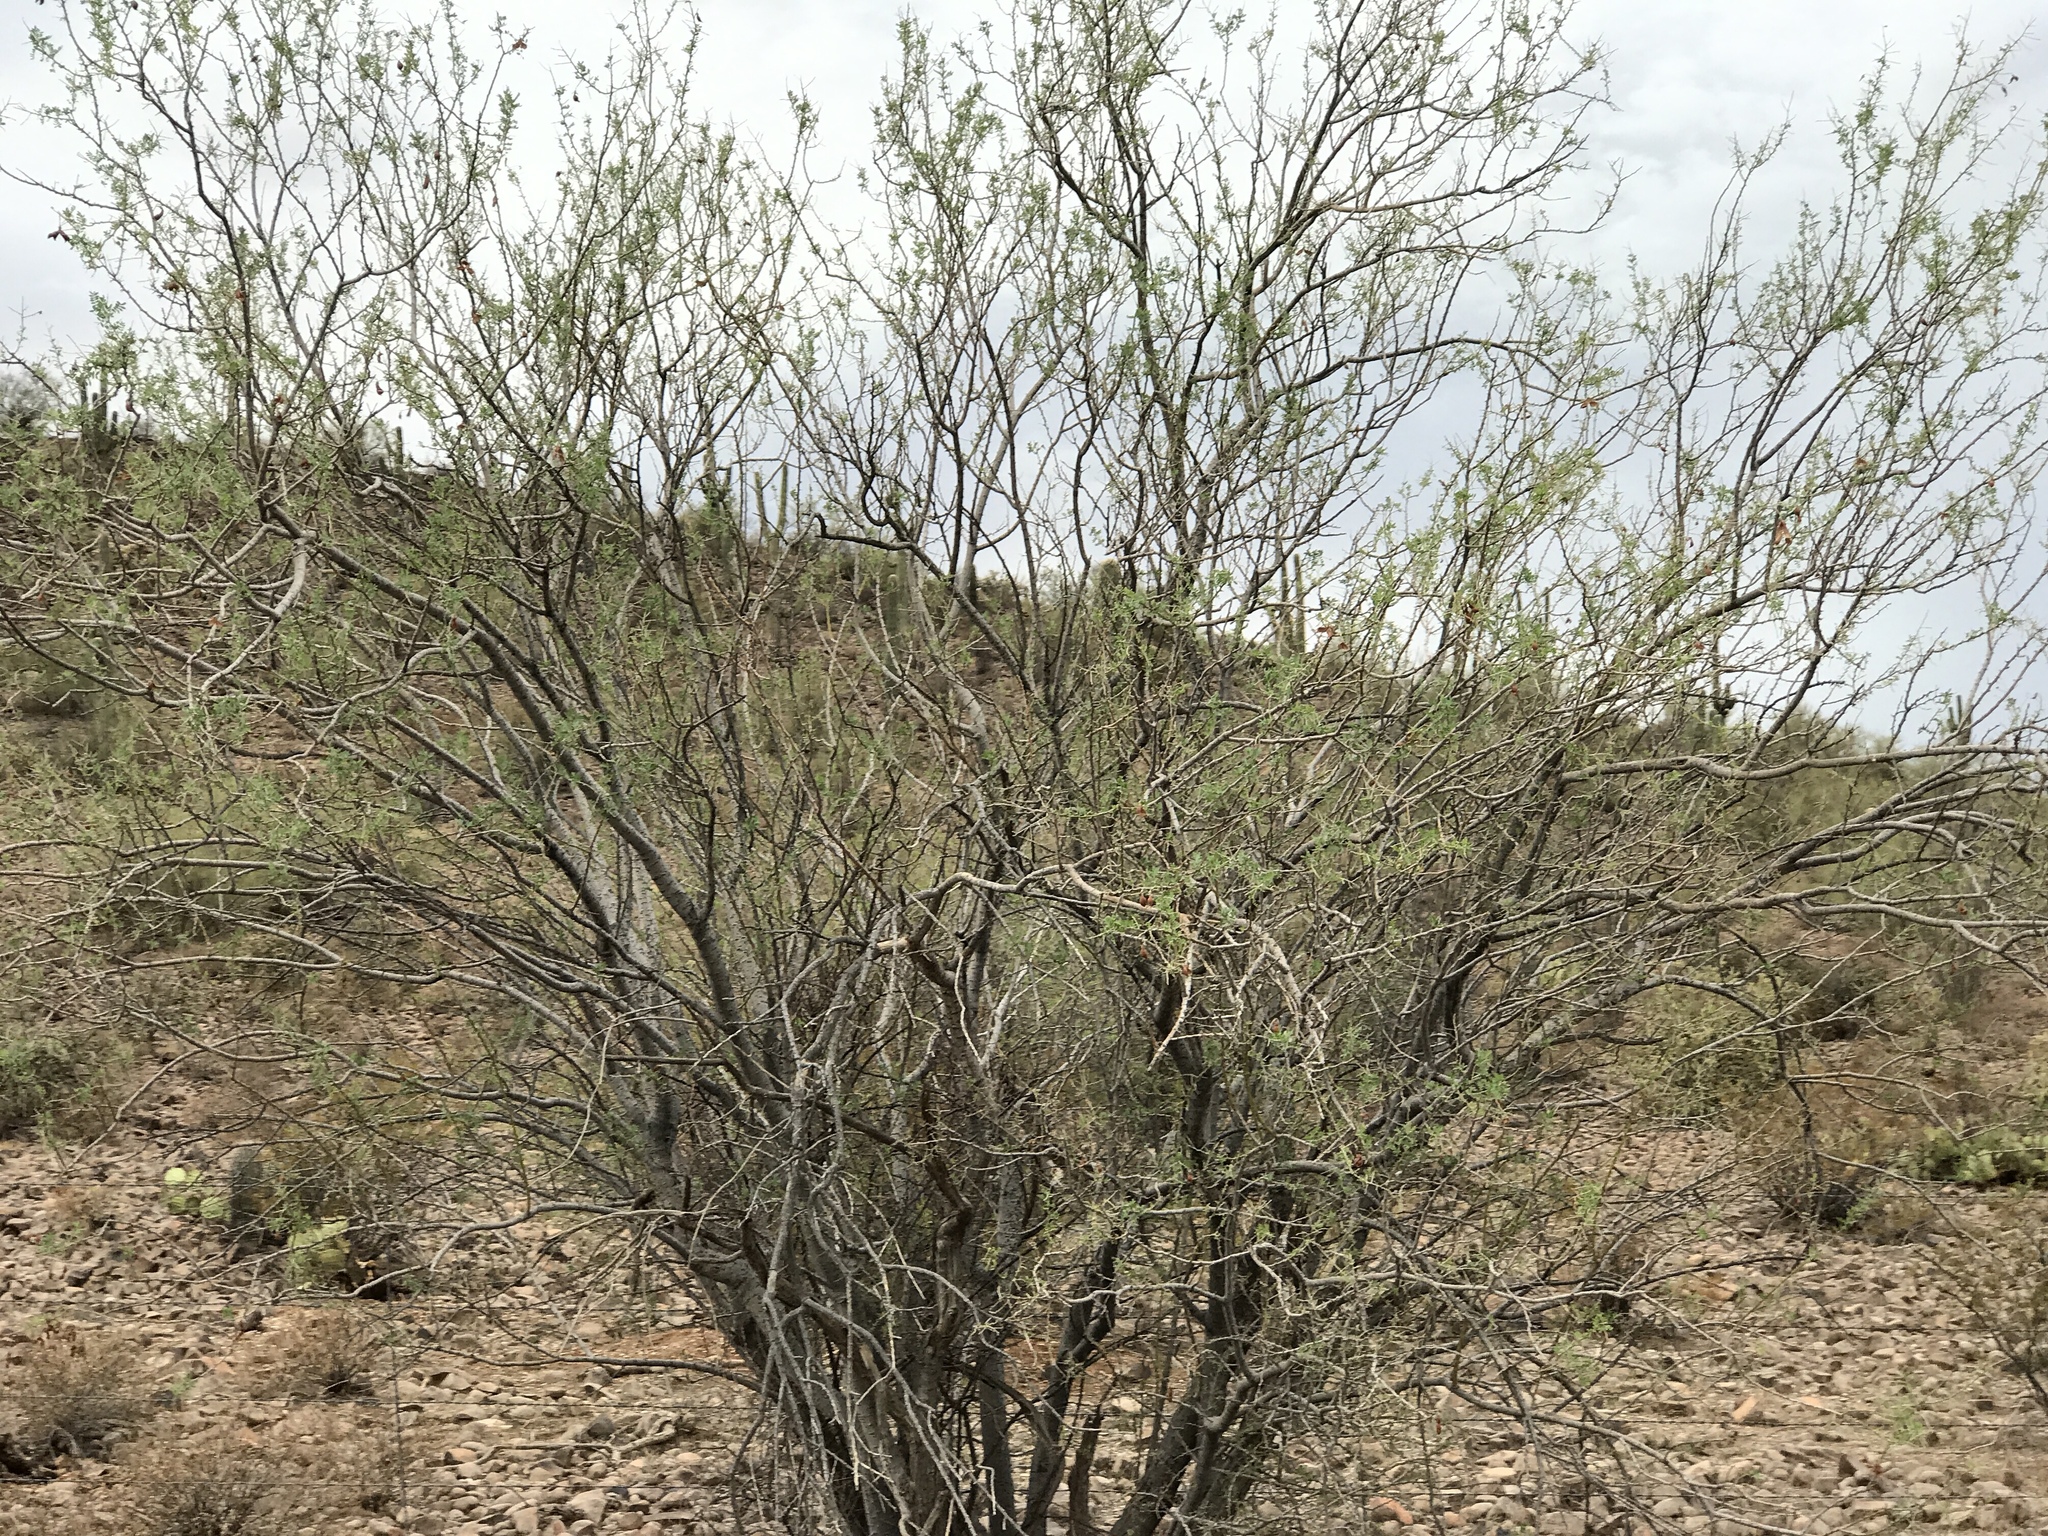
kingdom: Plantae
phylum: Tracheophyta
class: Magnoliopsida
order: Zygophyllales
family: Zygophyllaceae
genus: Larrea
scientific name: Larrea tridentata
